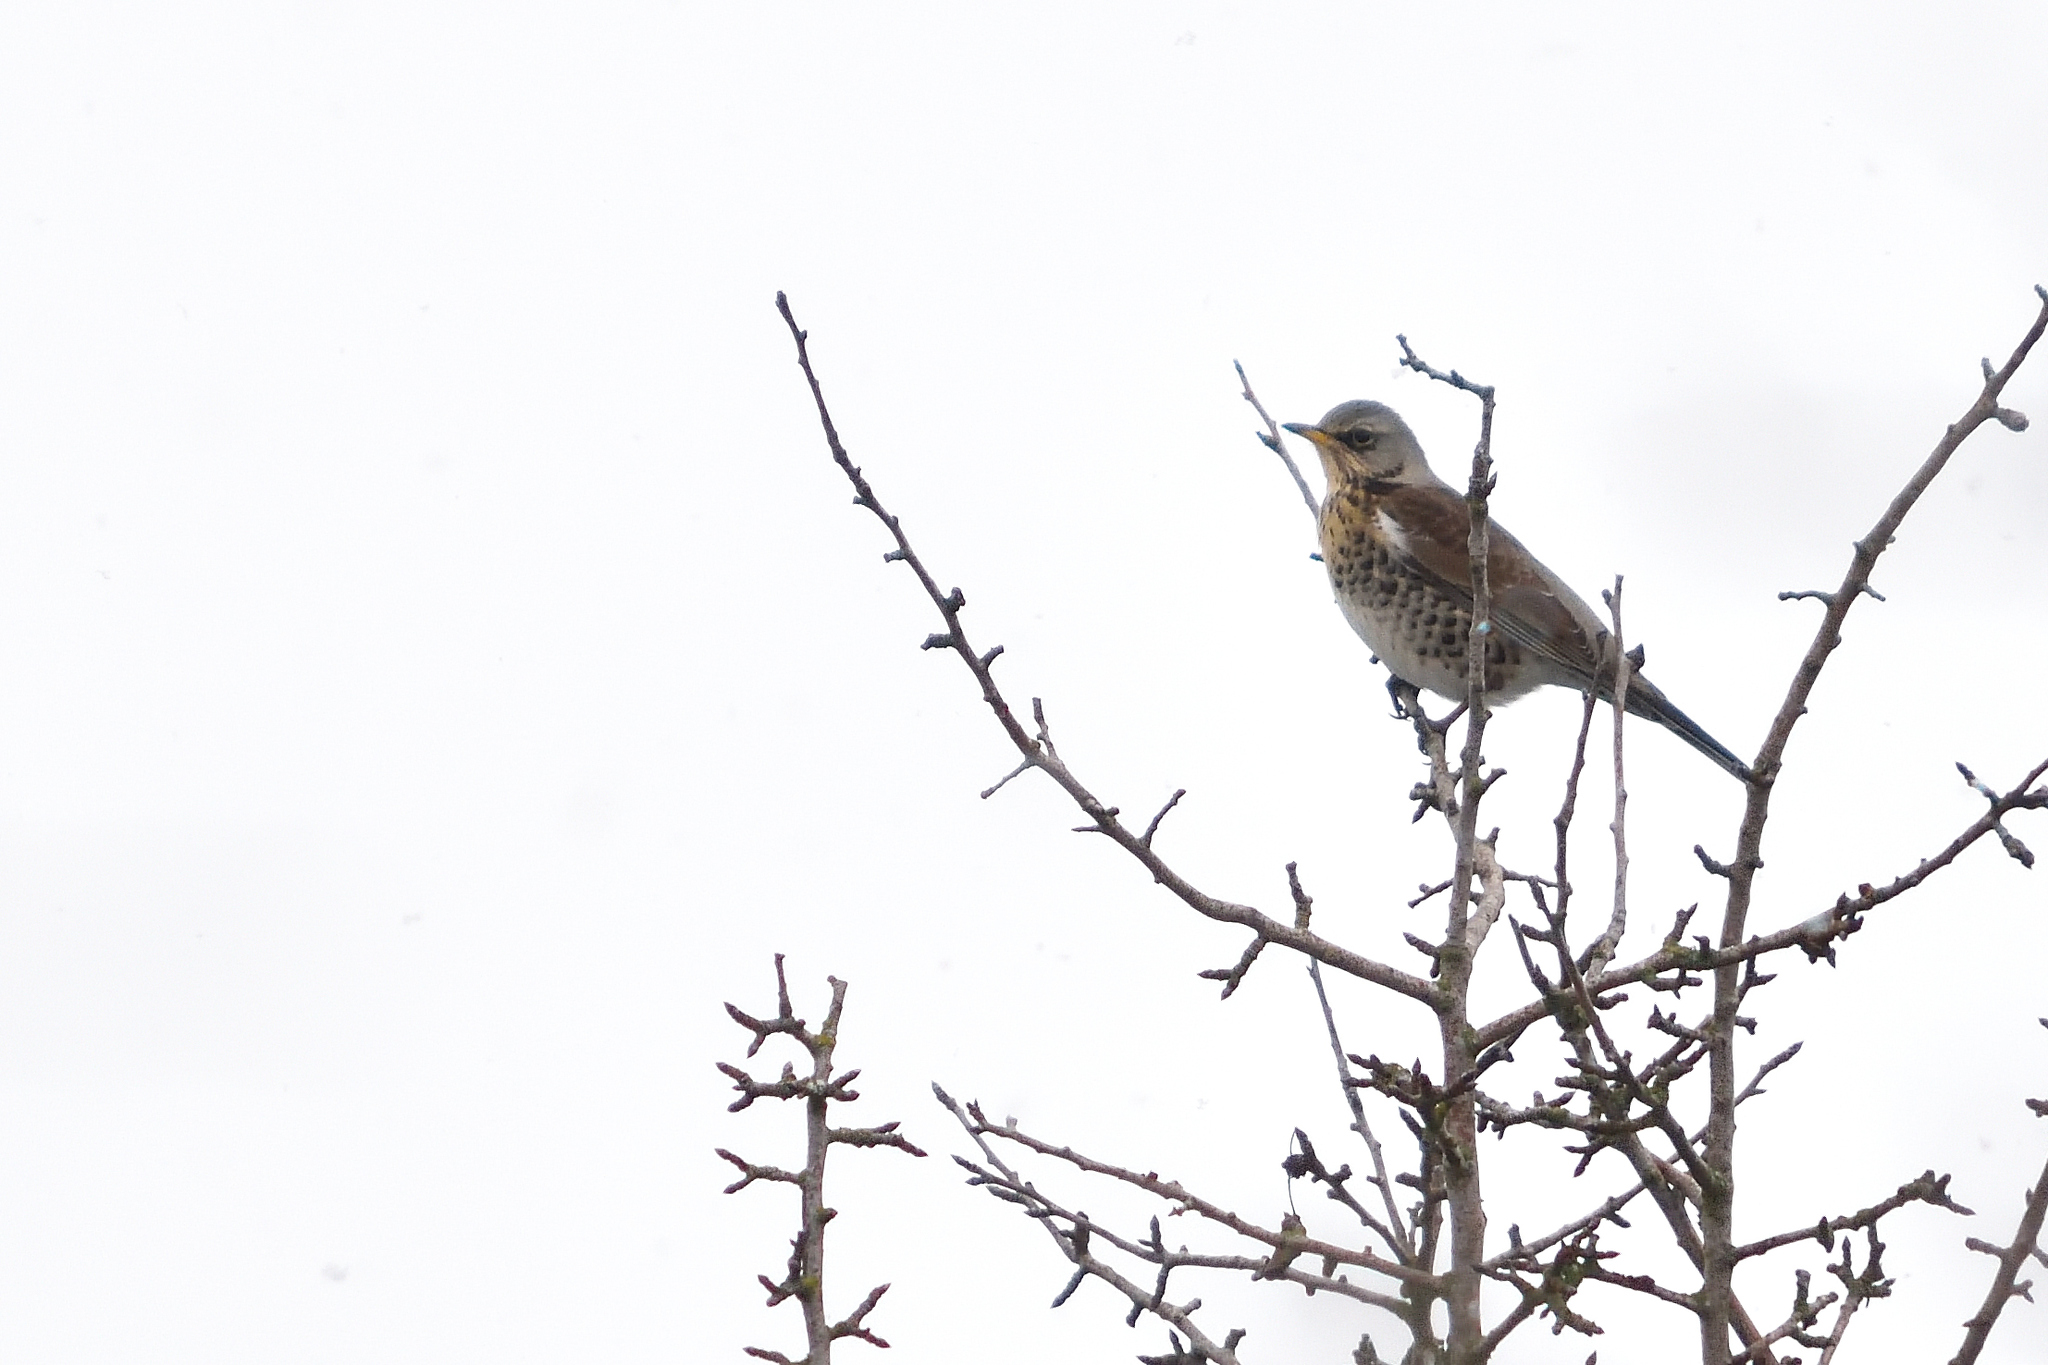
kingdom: Animalia
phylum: Chordata
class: Aves
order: Passeriformes
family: Turdidae
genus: Turdus
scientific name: Turdus pilaris
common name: Fieldfare
